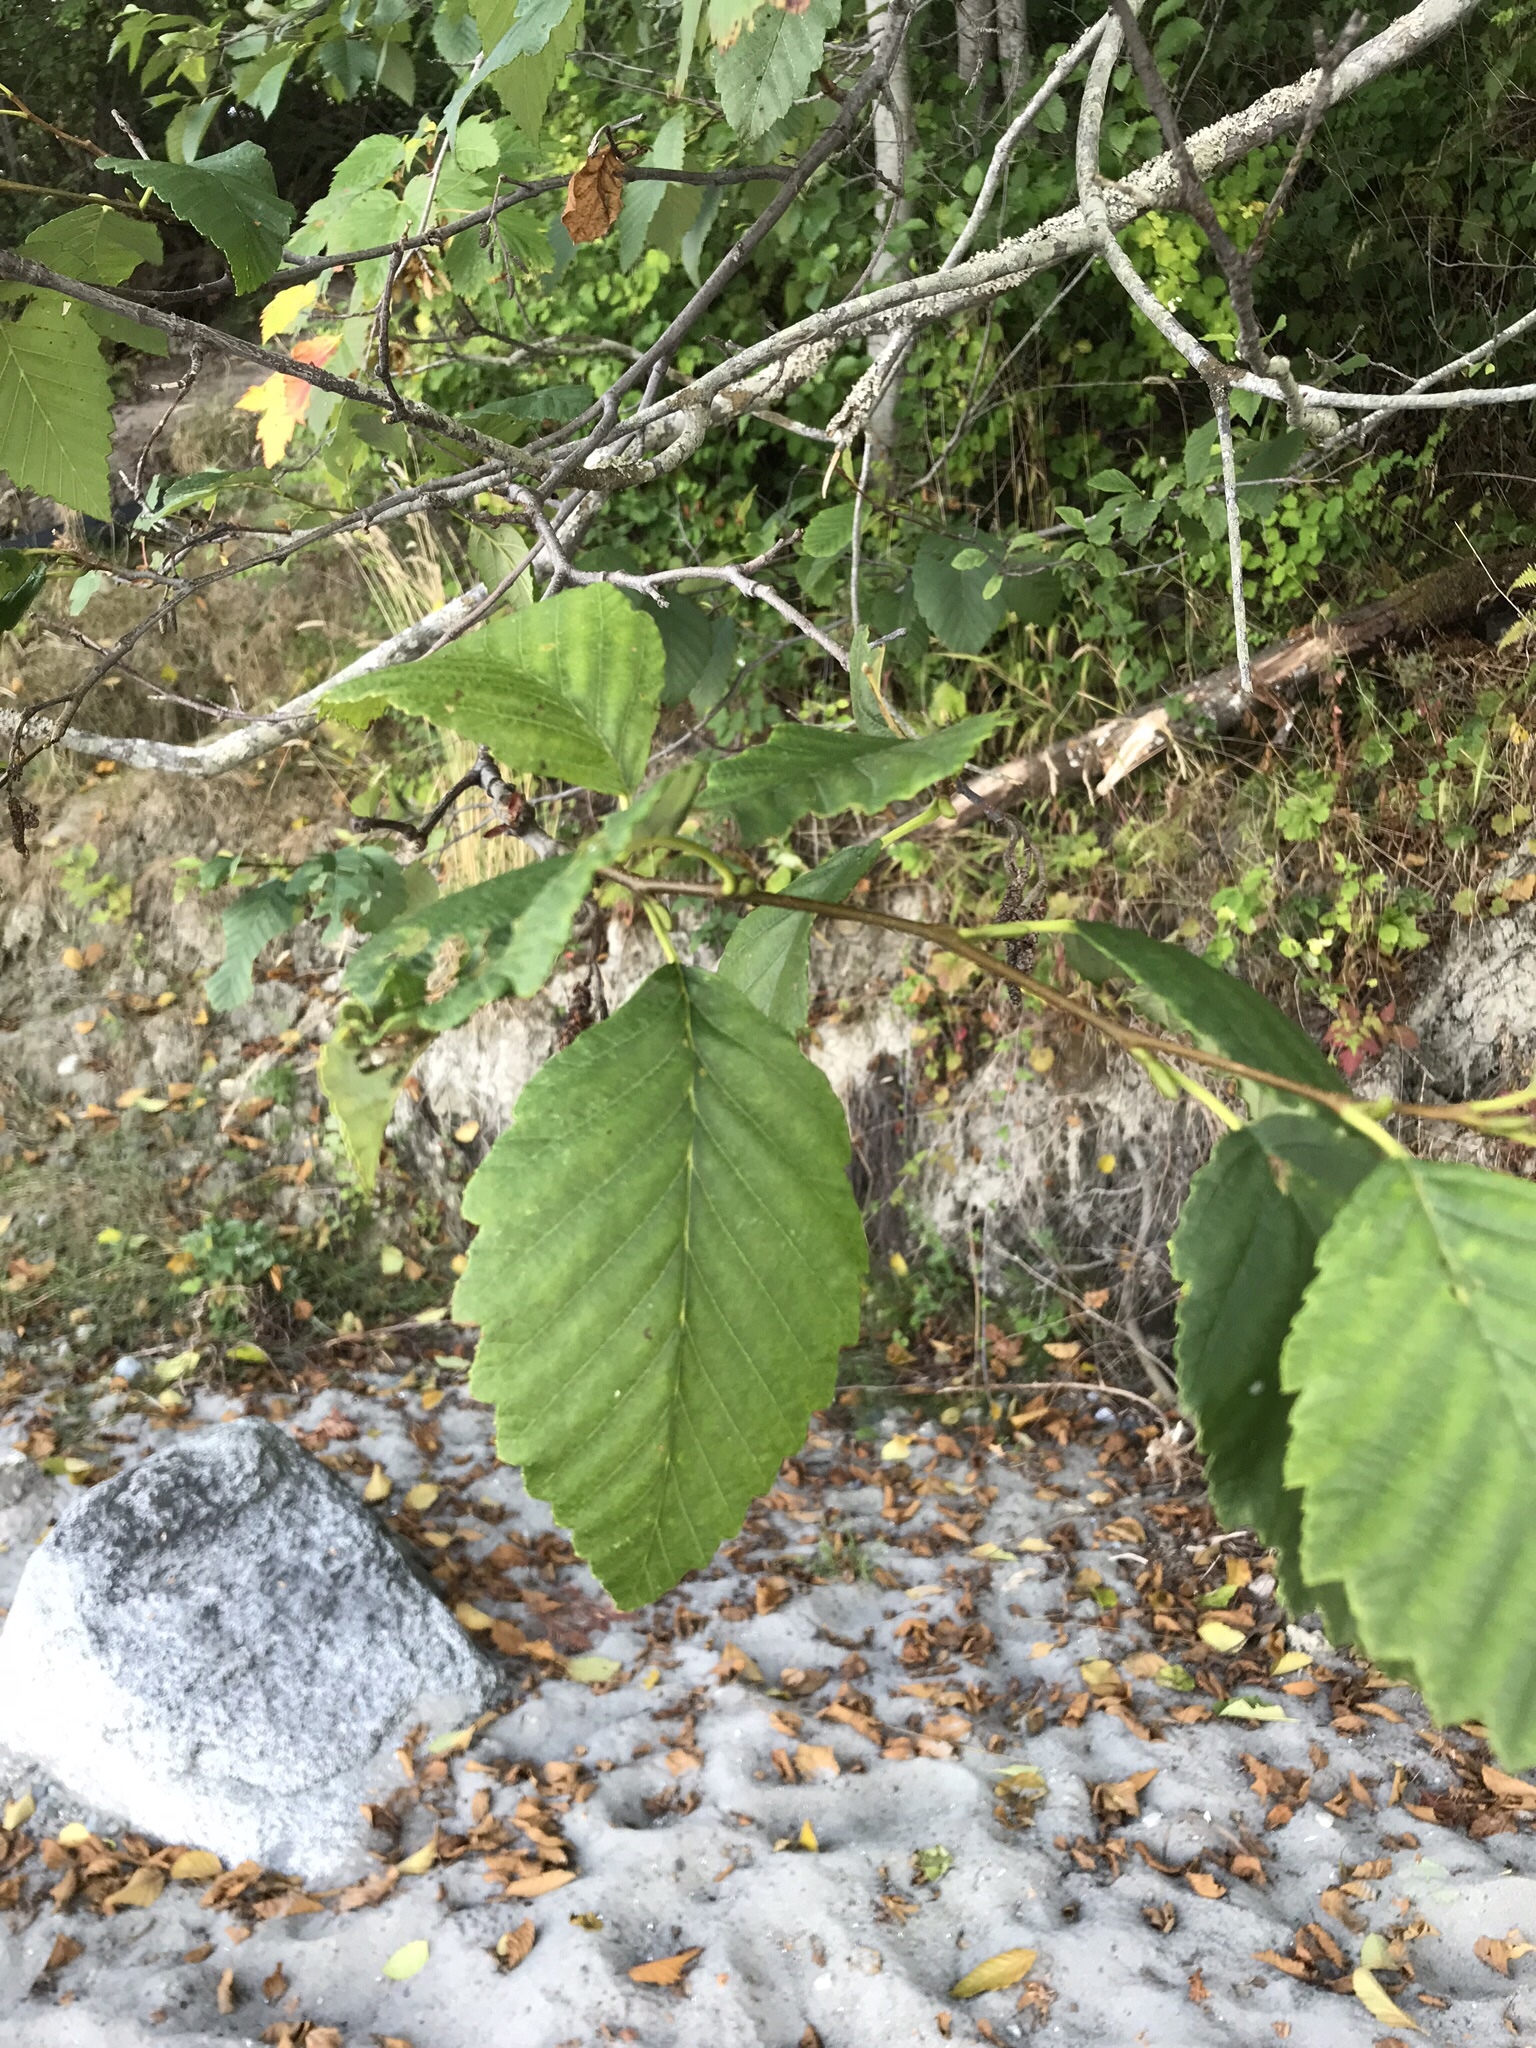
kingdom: Plantae
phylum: Tracheophyta
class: Magnoliopsida
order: Fagales
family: Betulaceae
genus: Alnus
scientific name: Alnus rubra
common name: Red alder
